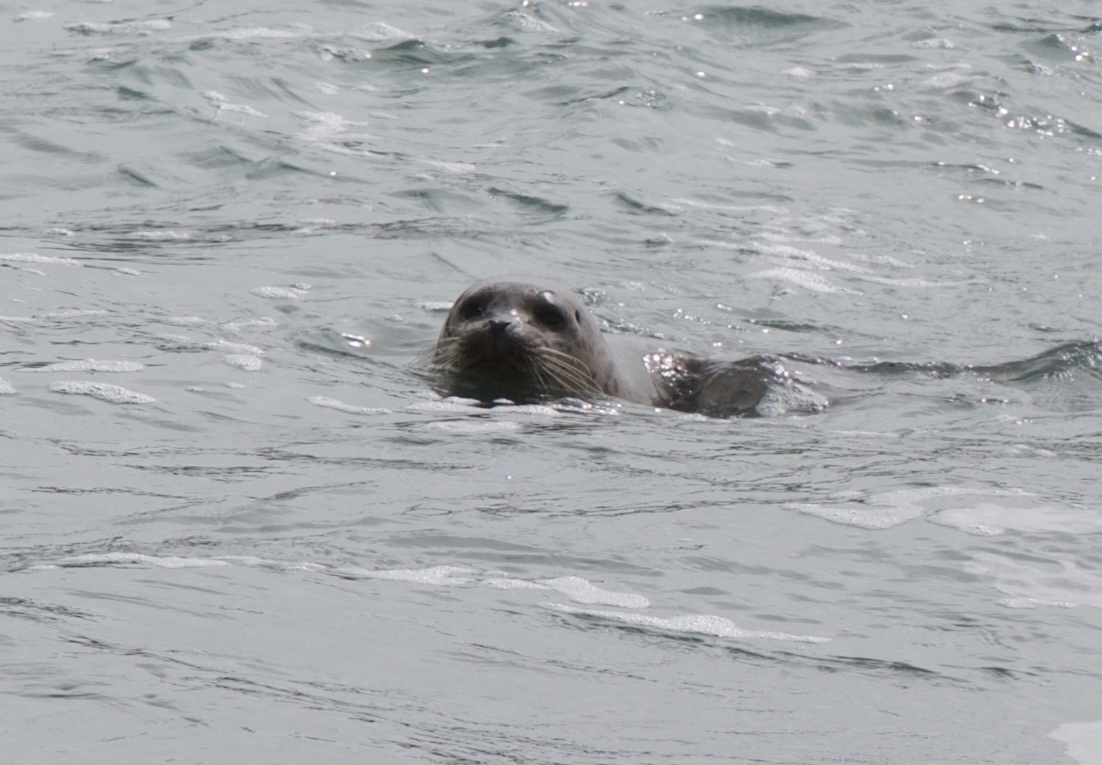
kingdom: Animalia
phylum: Chordata
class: Mammalia
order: Carnivora
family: Phocidae
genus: Phoca
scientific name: Phoca vitulina
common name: Harbor seal
